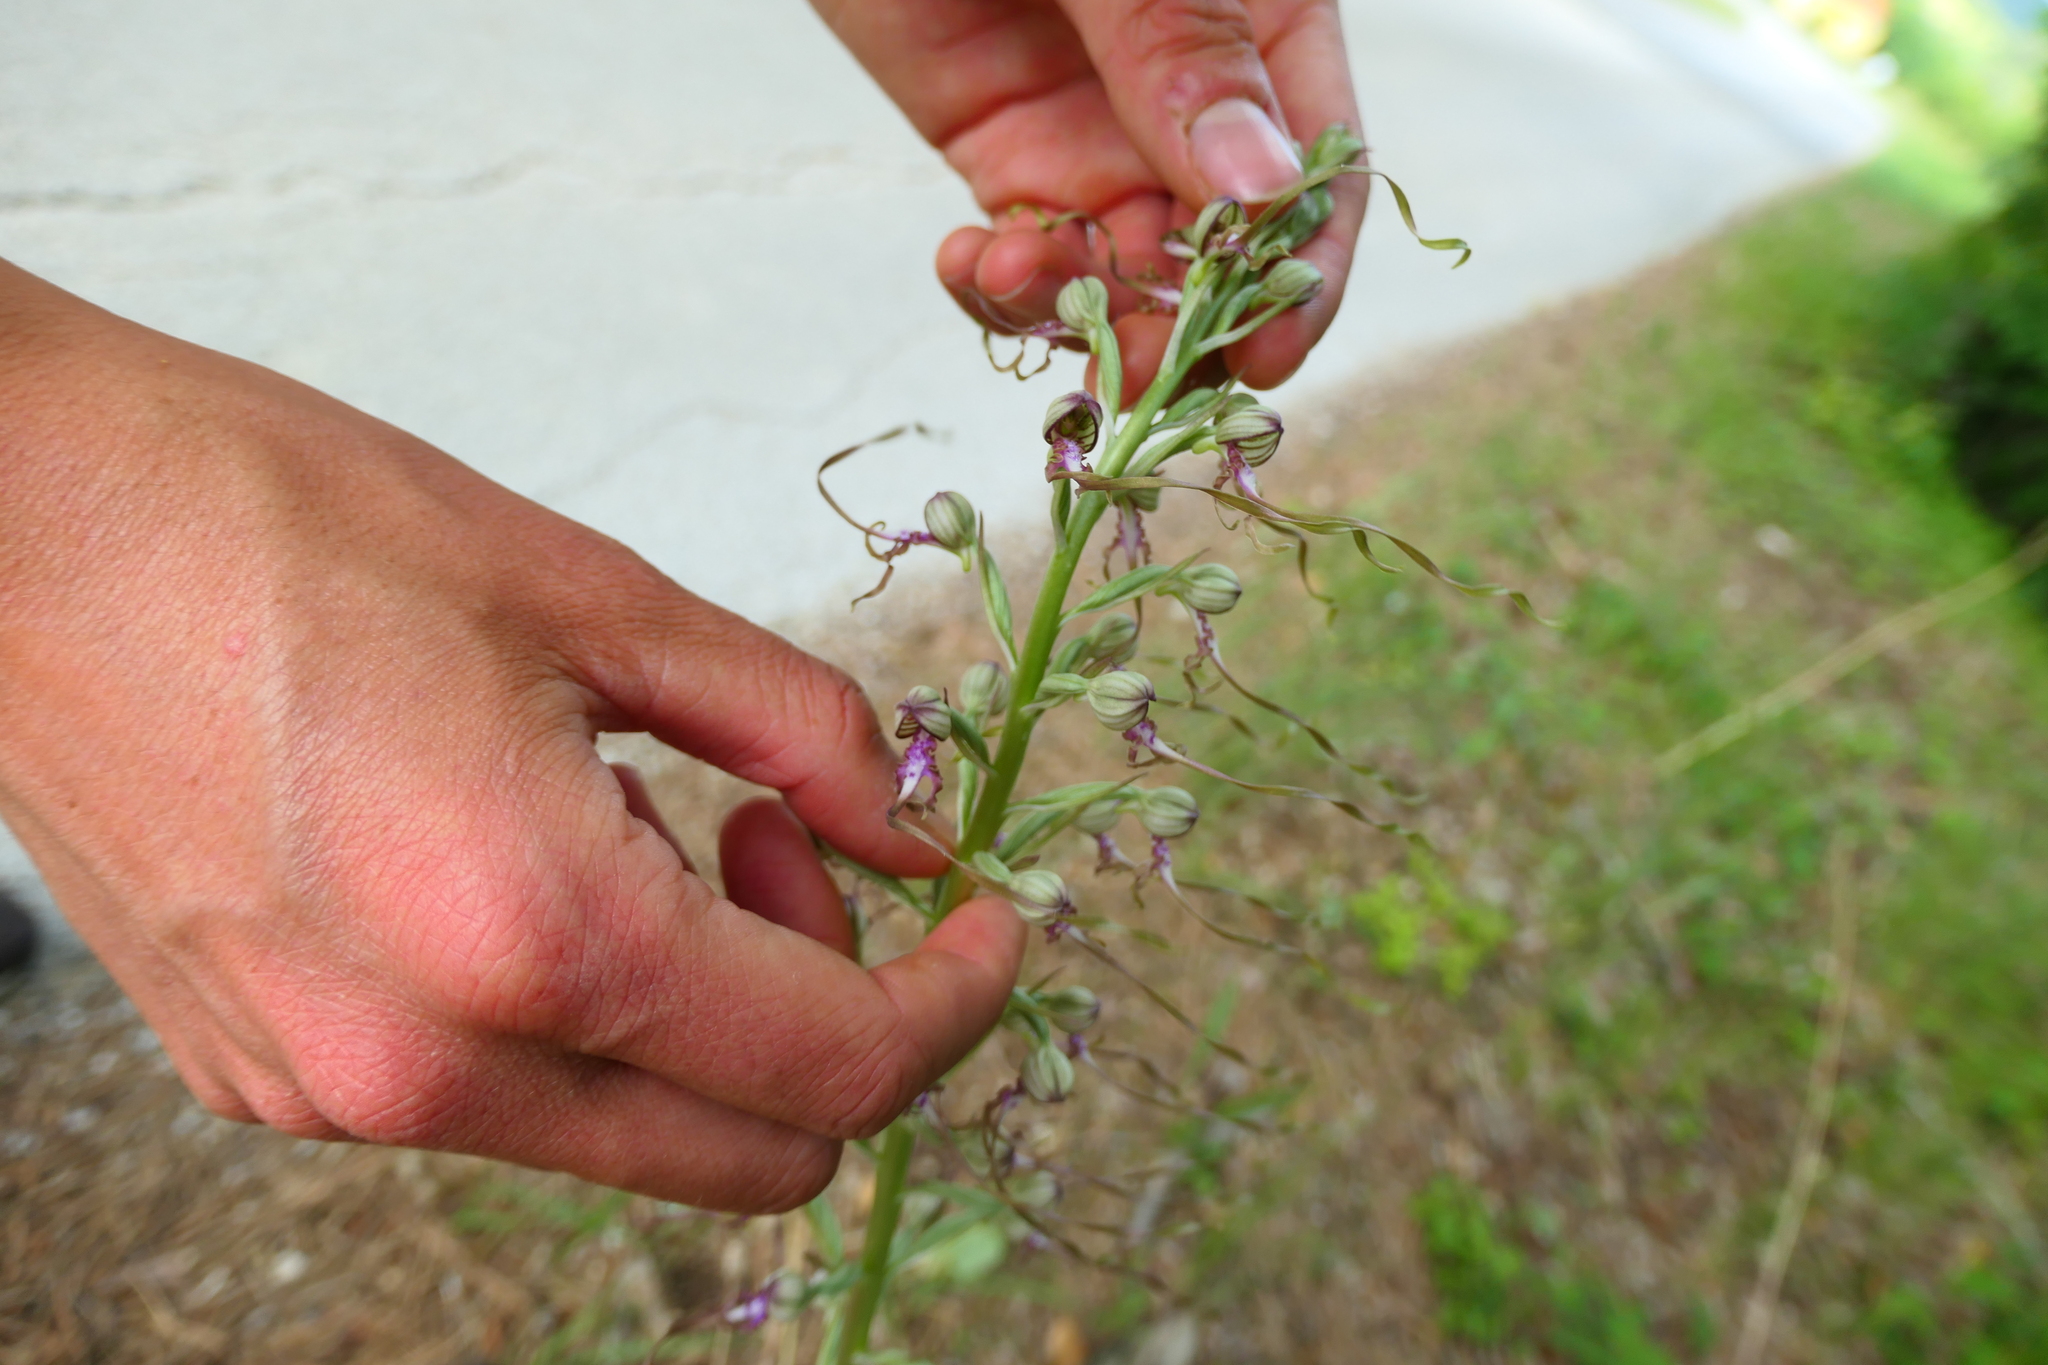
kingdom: Plantae
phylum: Tracheophyta
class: Liliopsida
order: Asparagales
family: Orchidaceae
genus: Himantoglossum
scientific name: Himantoglossum adriaticum
